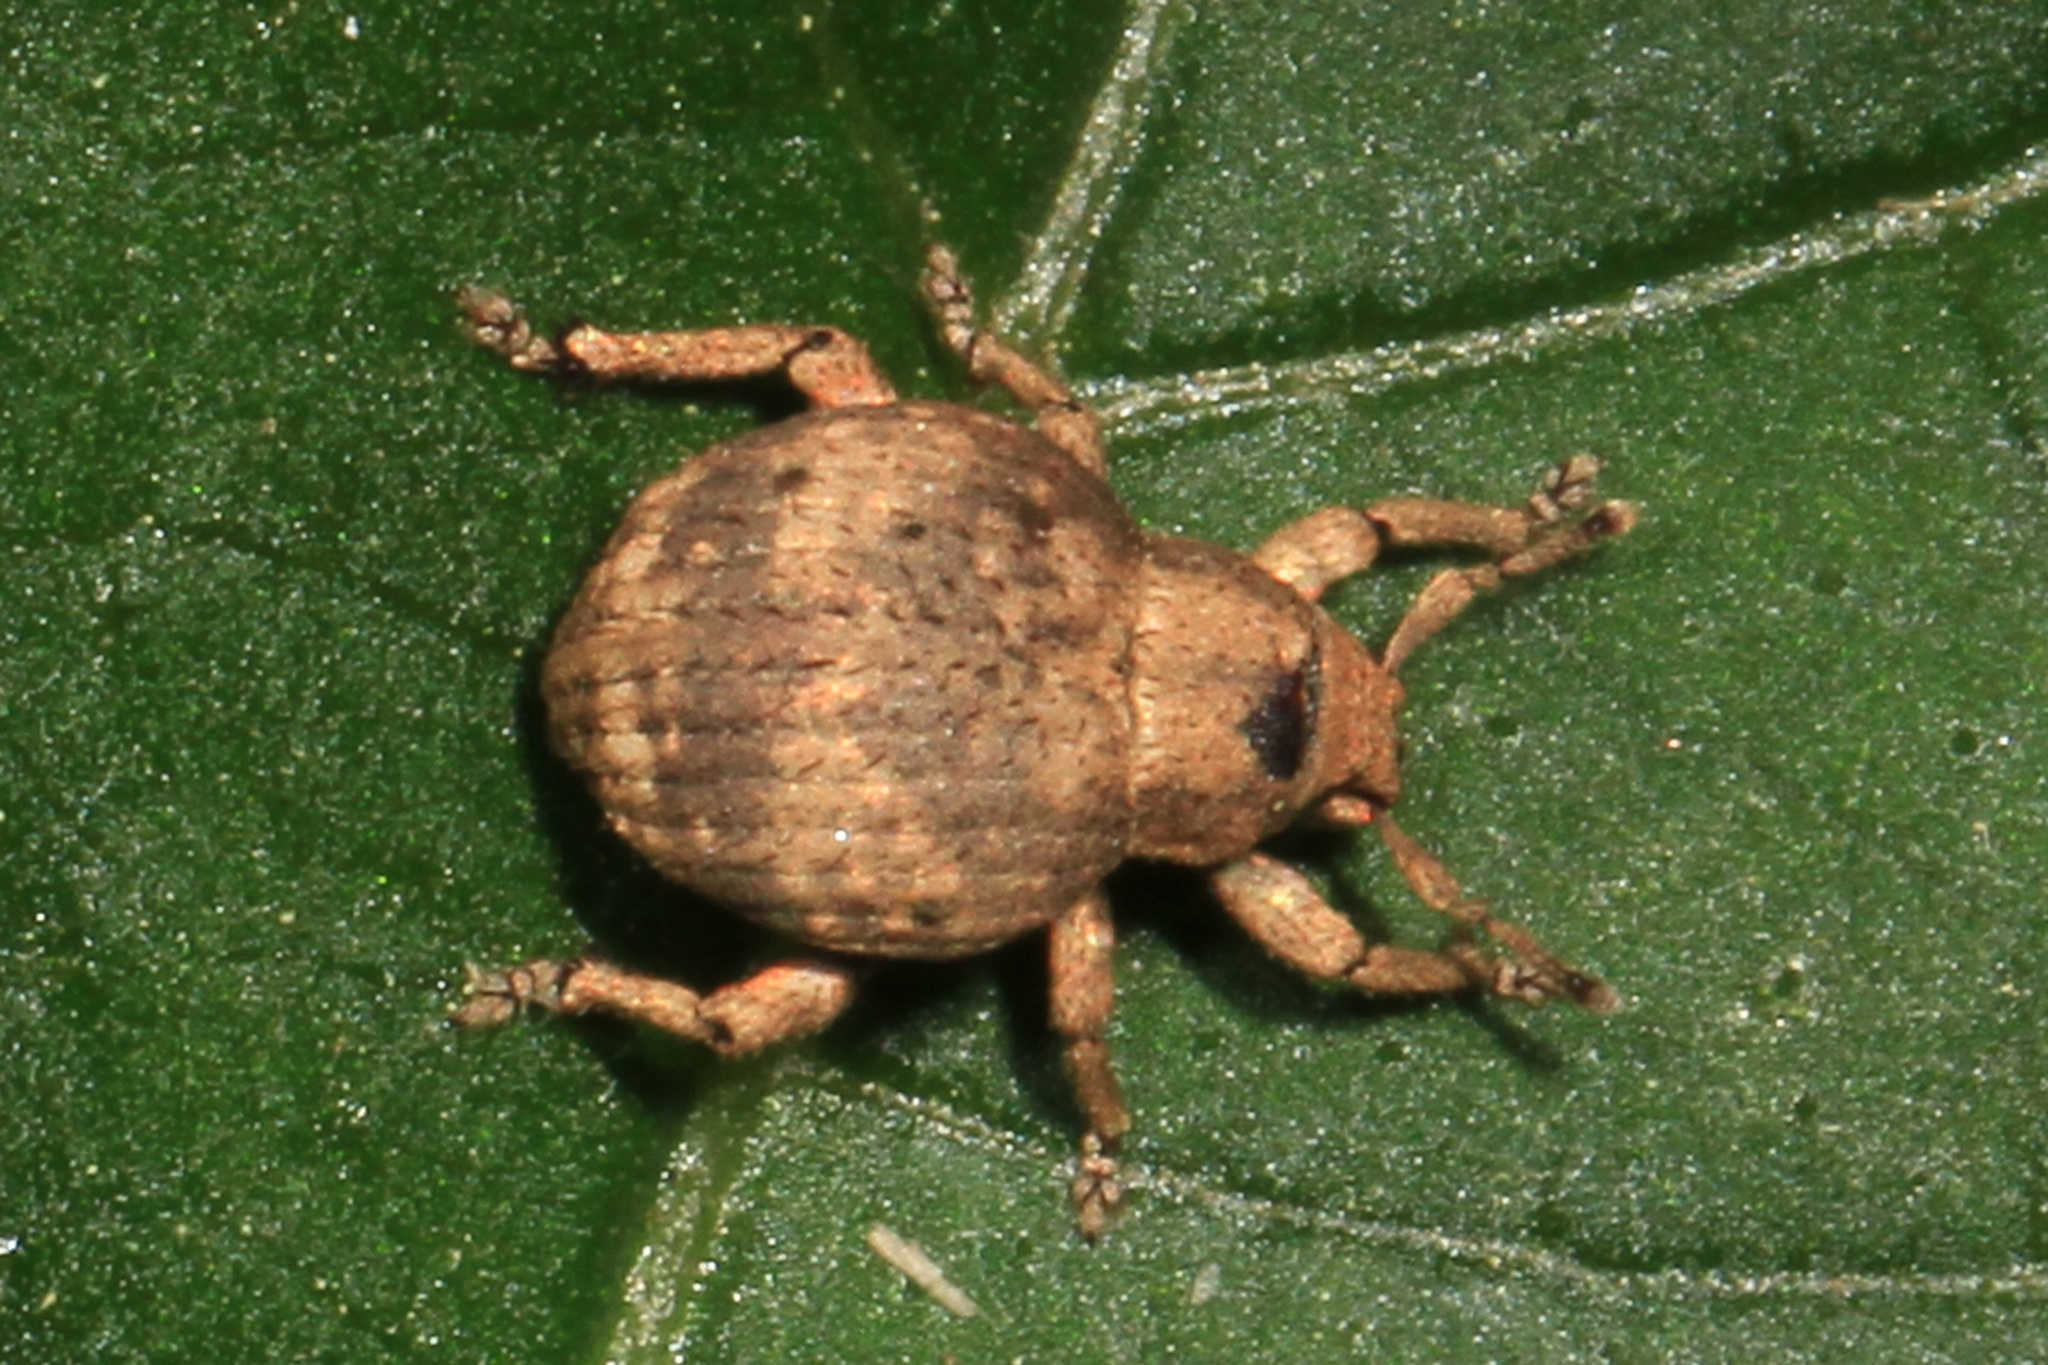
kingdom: Animalia
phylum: Arthropoda
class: Insecta
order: Coleoptera
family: Curculionidae
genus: Pseudocneorhinus
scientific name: Pseudocneorhinus bifasciatus
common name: Two-banded japanese weevil
